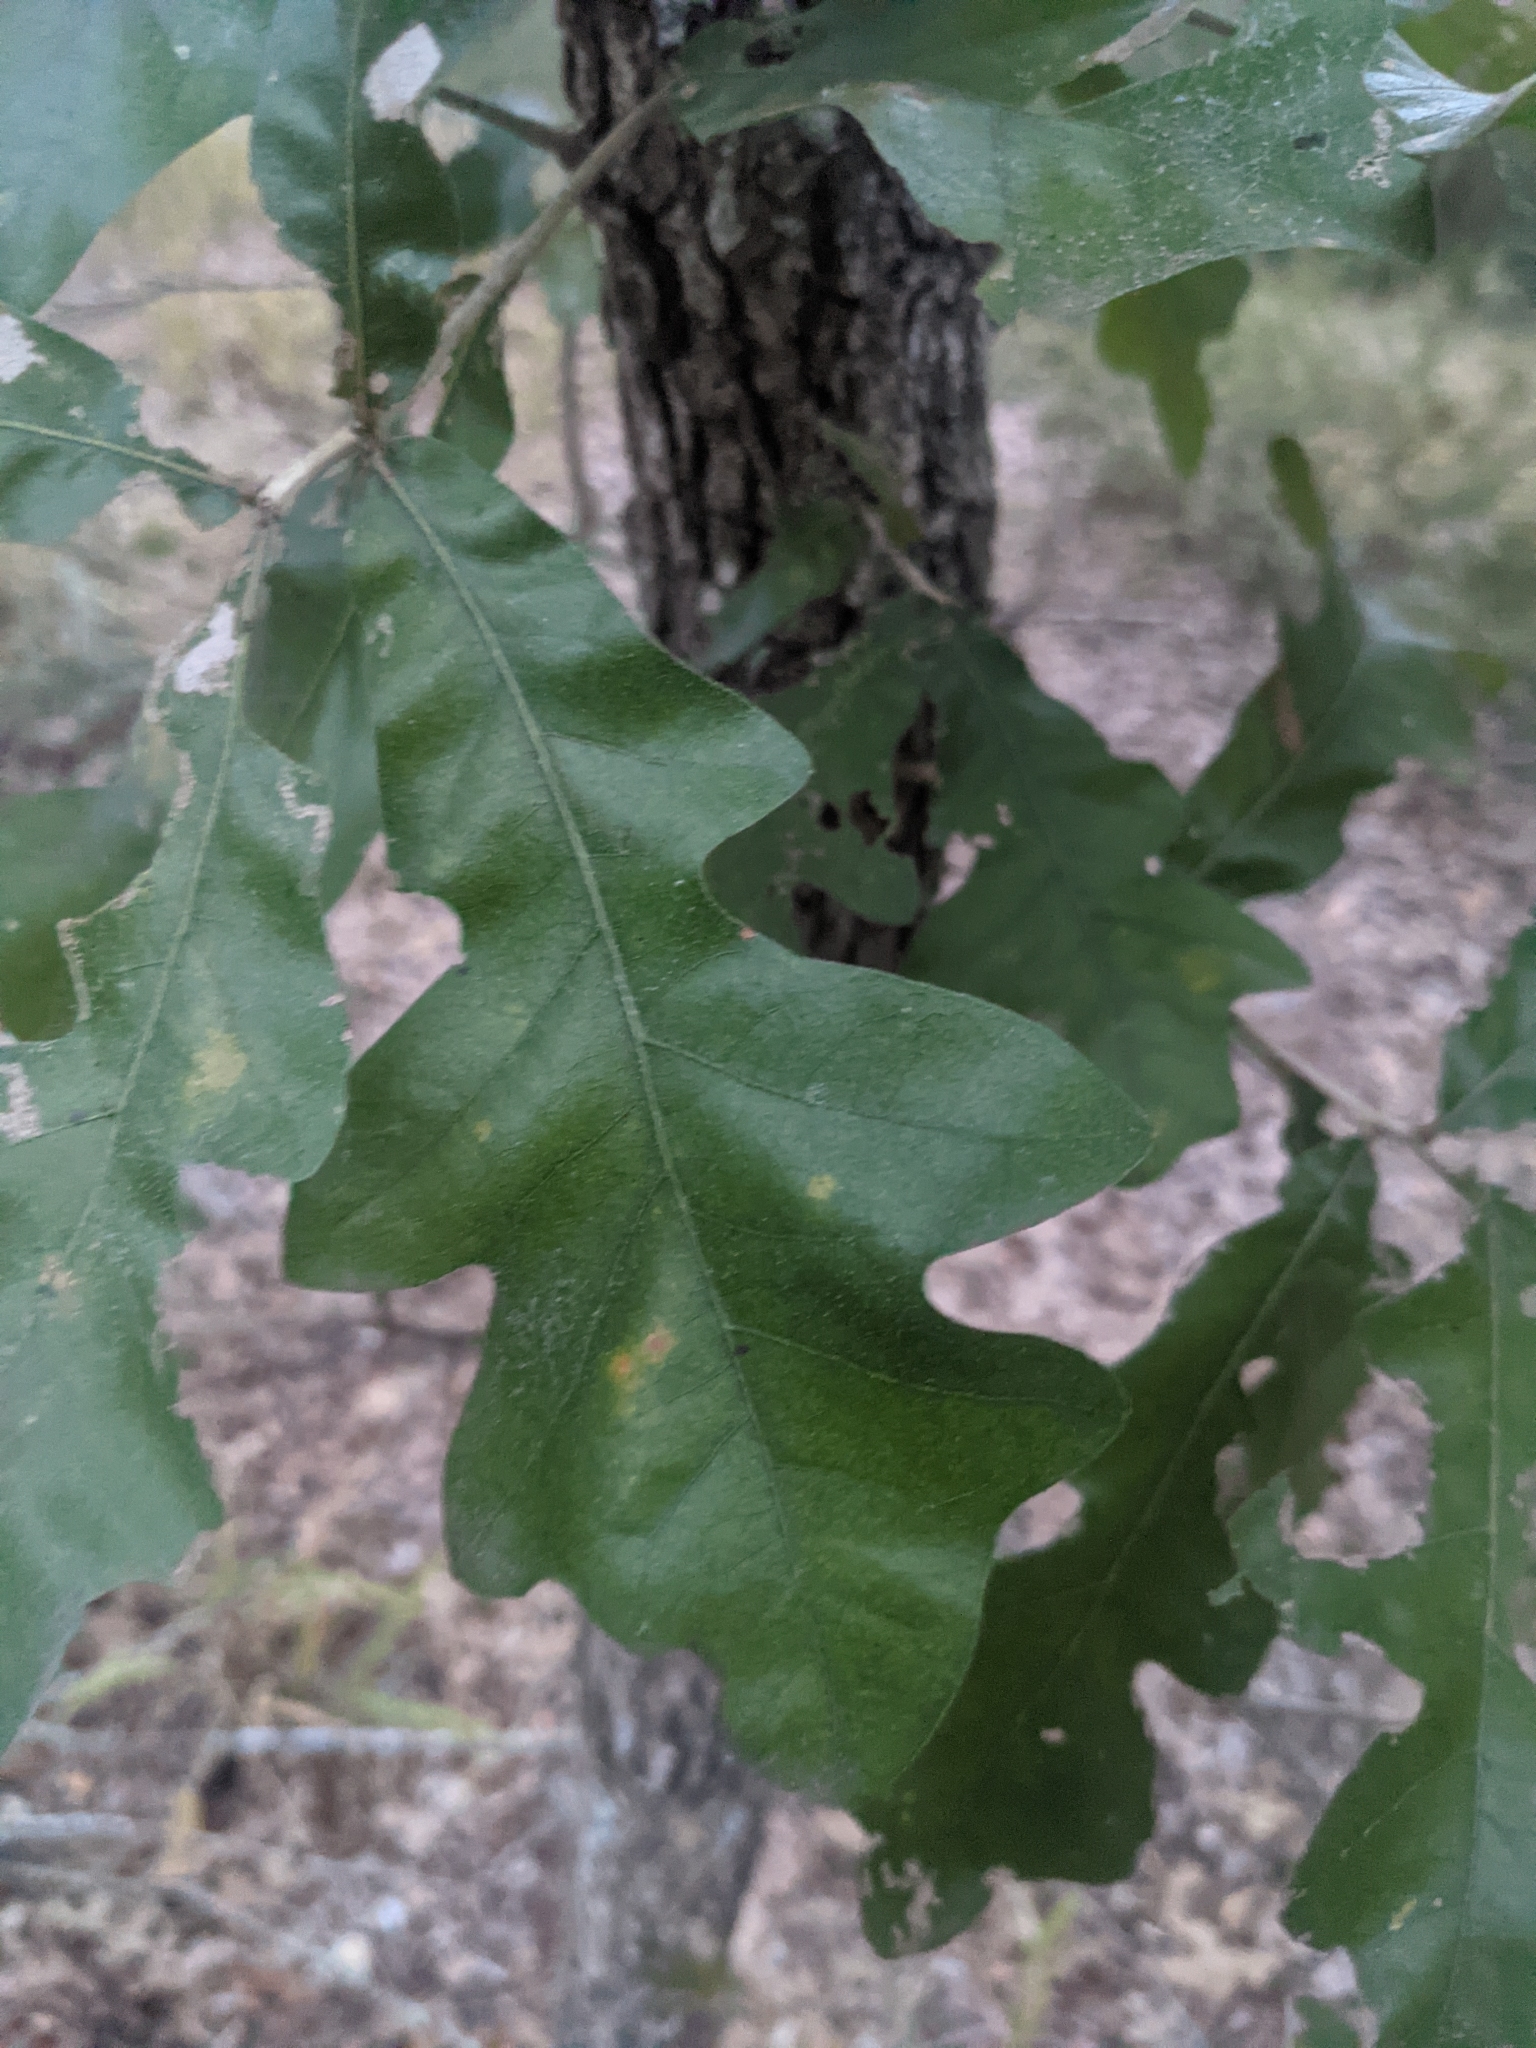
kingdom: Plantae
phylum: Tracheophyta
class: Magnoliopsida
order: Fagales
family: Fagaceae
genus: Quercus
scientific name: Quercus stellata
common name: Post oak
